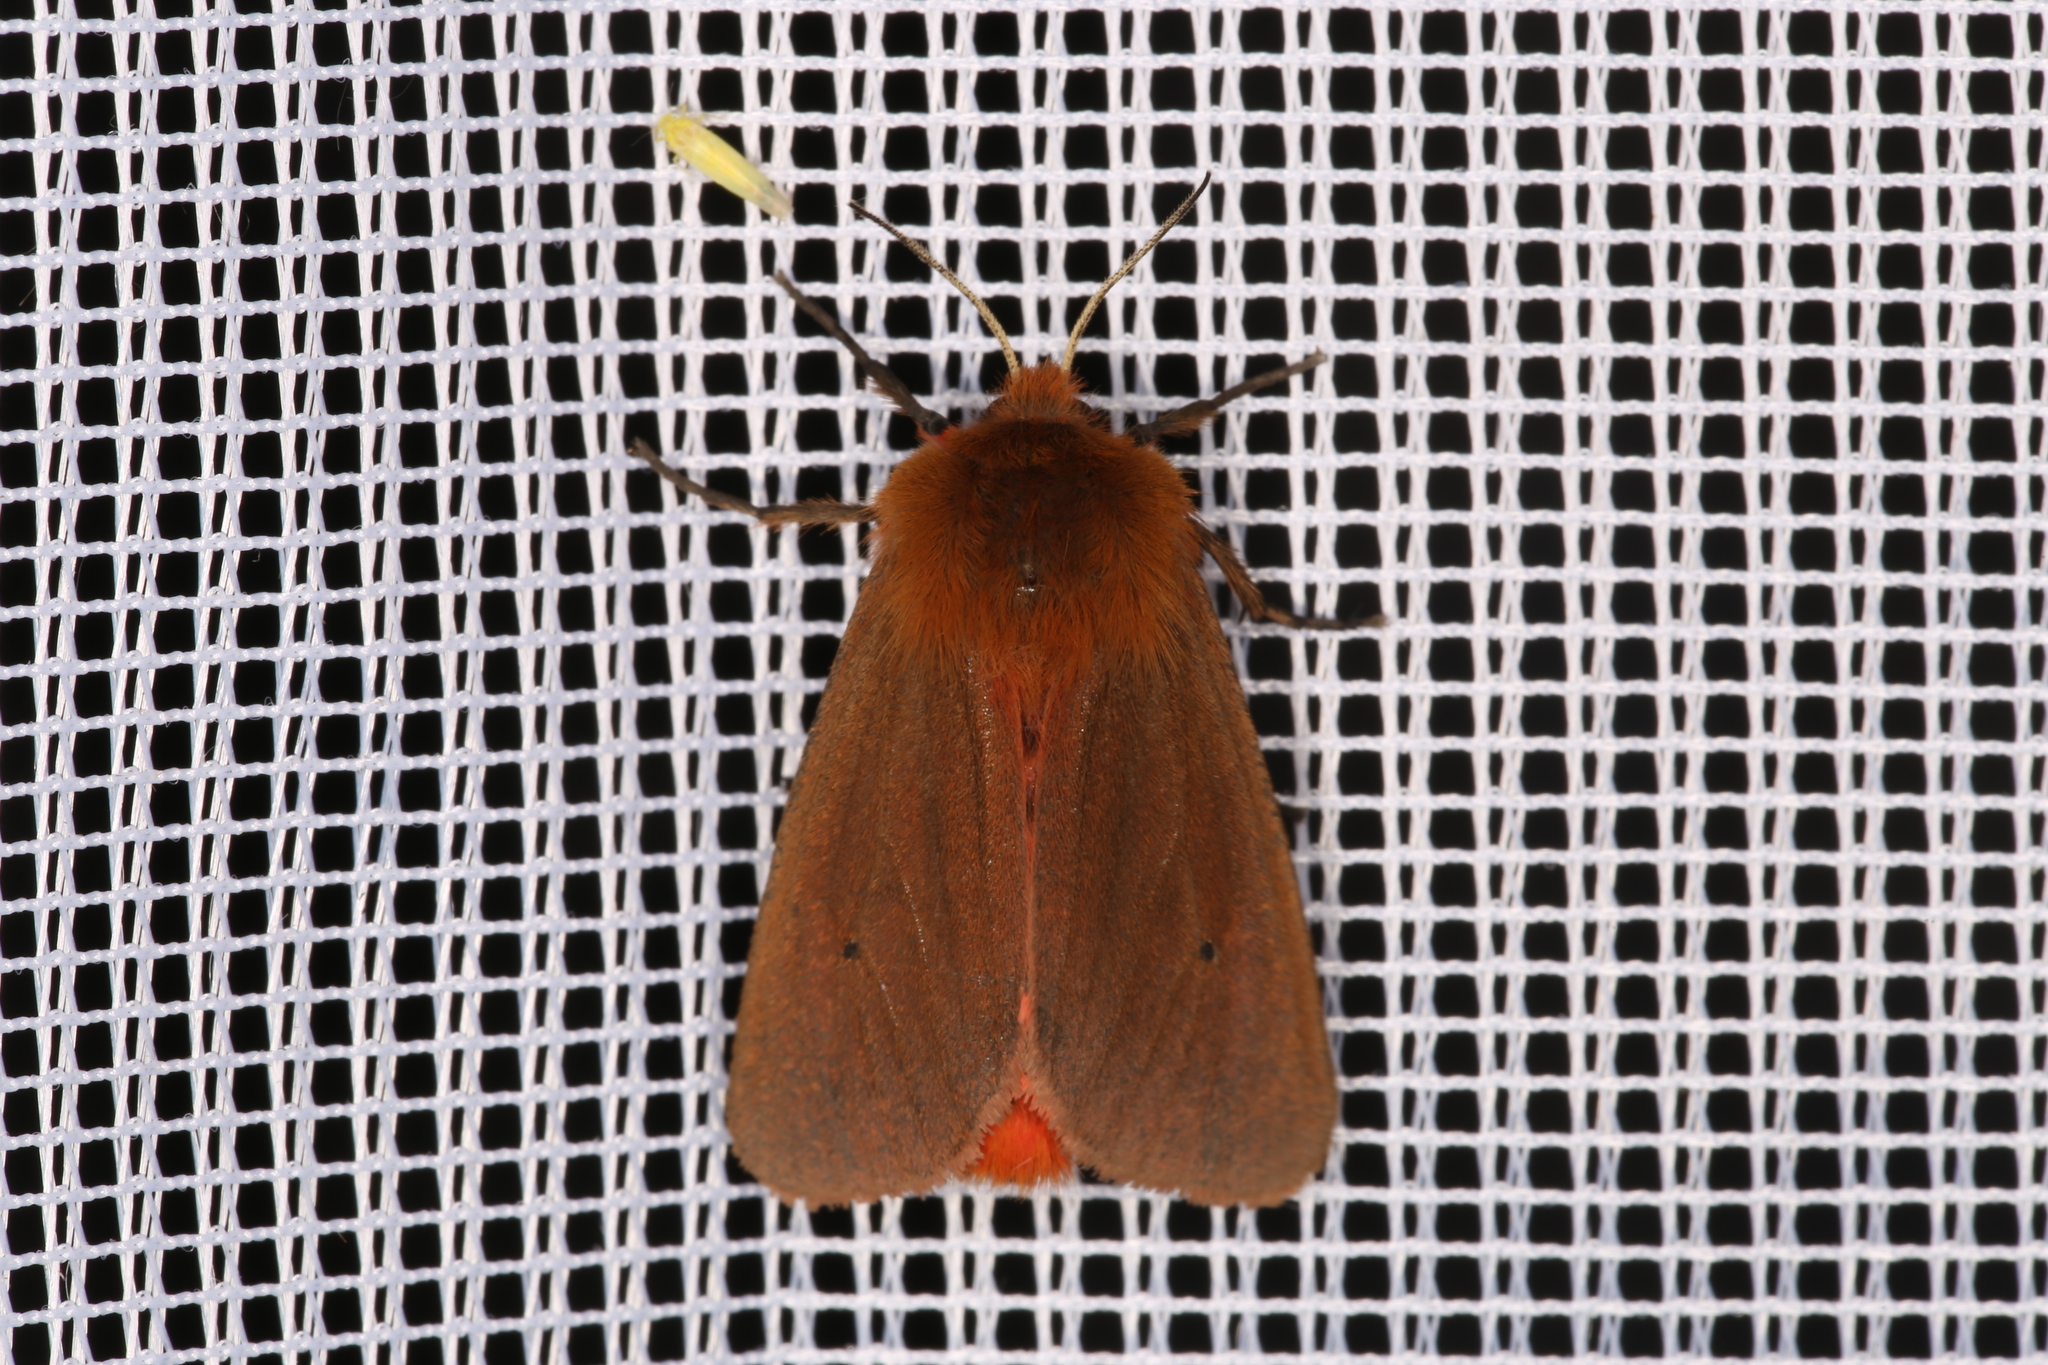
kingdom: Animalia
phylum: Arthropoda
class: Insecta
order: Lepidoptera
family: Erebidae
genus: Phragmatobia
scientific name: Phragmatobia fuliginosa
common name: Ruby tiger
